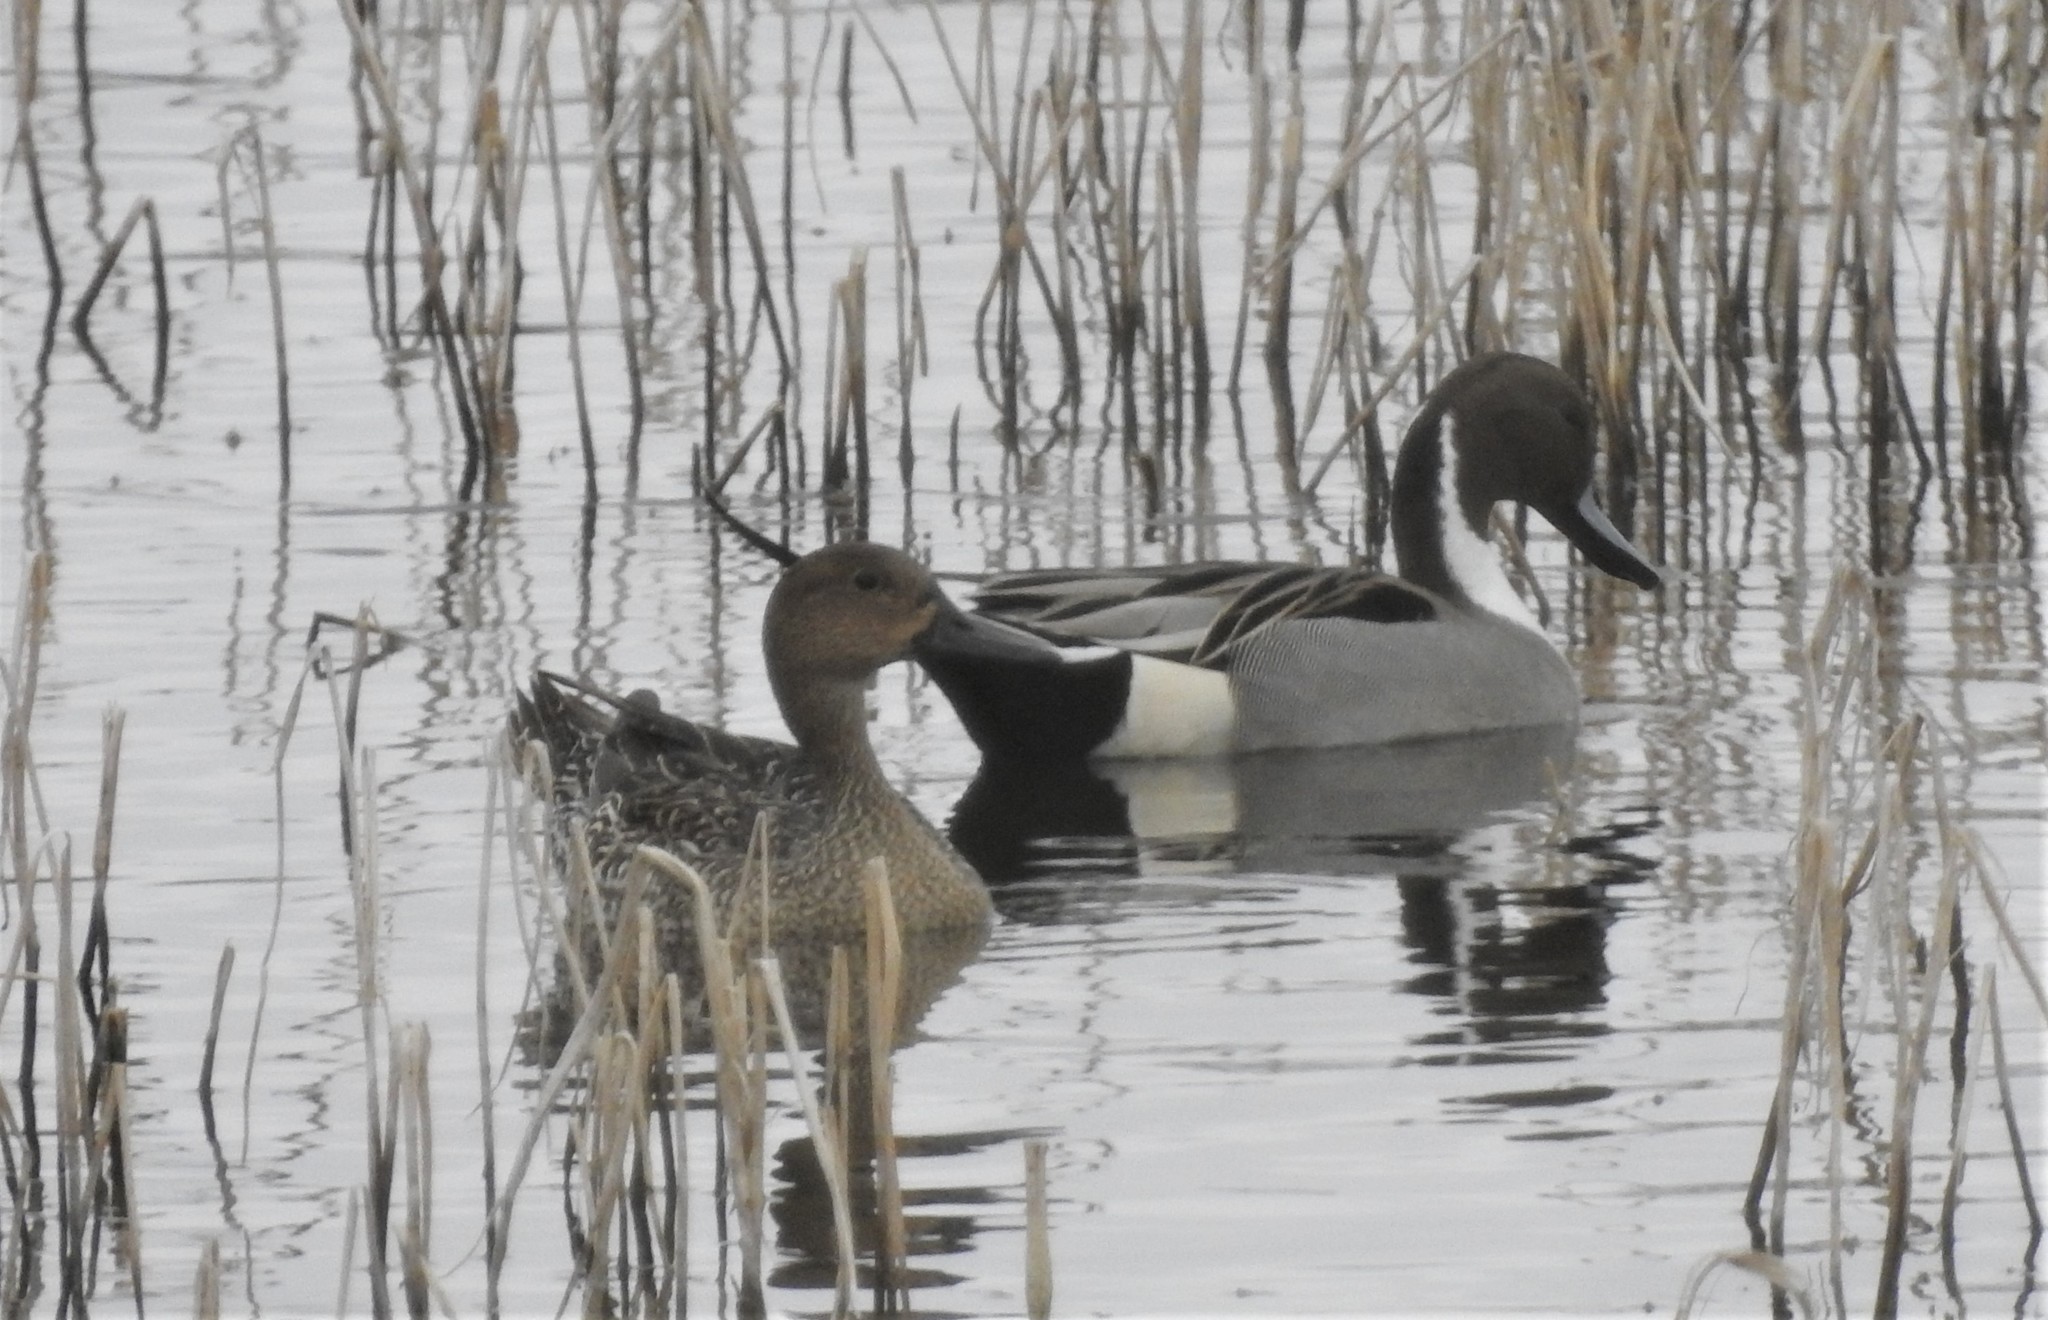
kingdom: Animalia
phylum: Chordata
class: Aves
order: Anseriformes
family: Anatidae
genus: Anas
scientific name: Anas acuta
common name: Northern pintail
